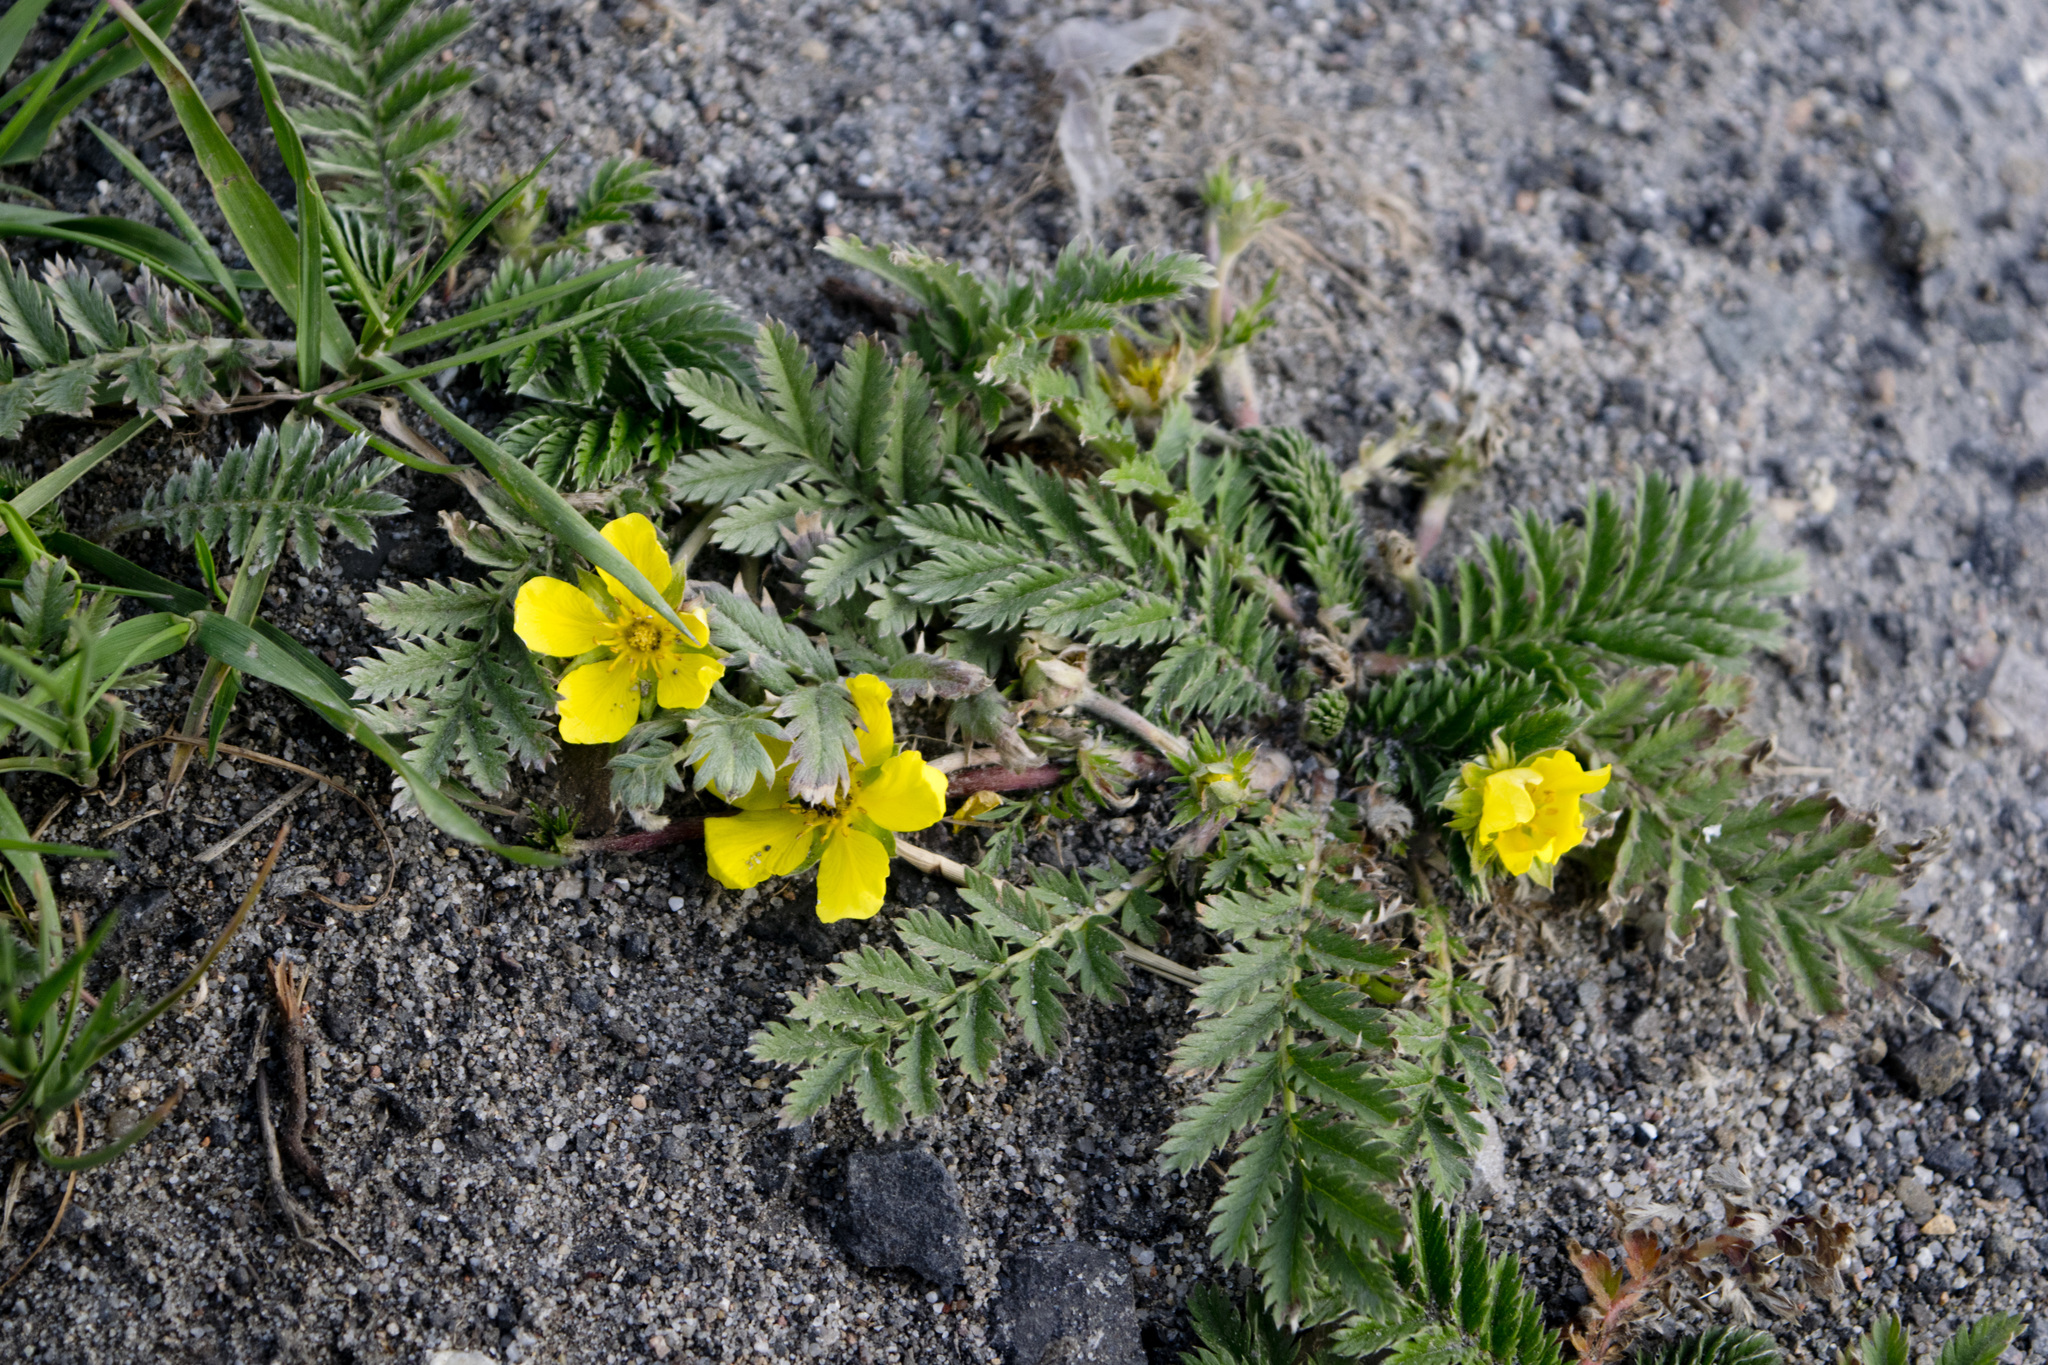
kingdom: Plantae
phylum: Tracheophyta
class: Magnoliopsida
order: Rosales
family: Rosaceae
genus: Argentina
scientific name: Argentina anserina
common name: Common silverweed
